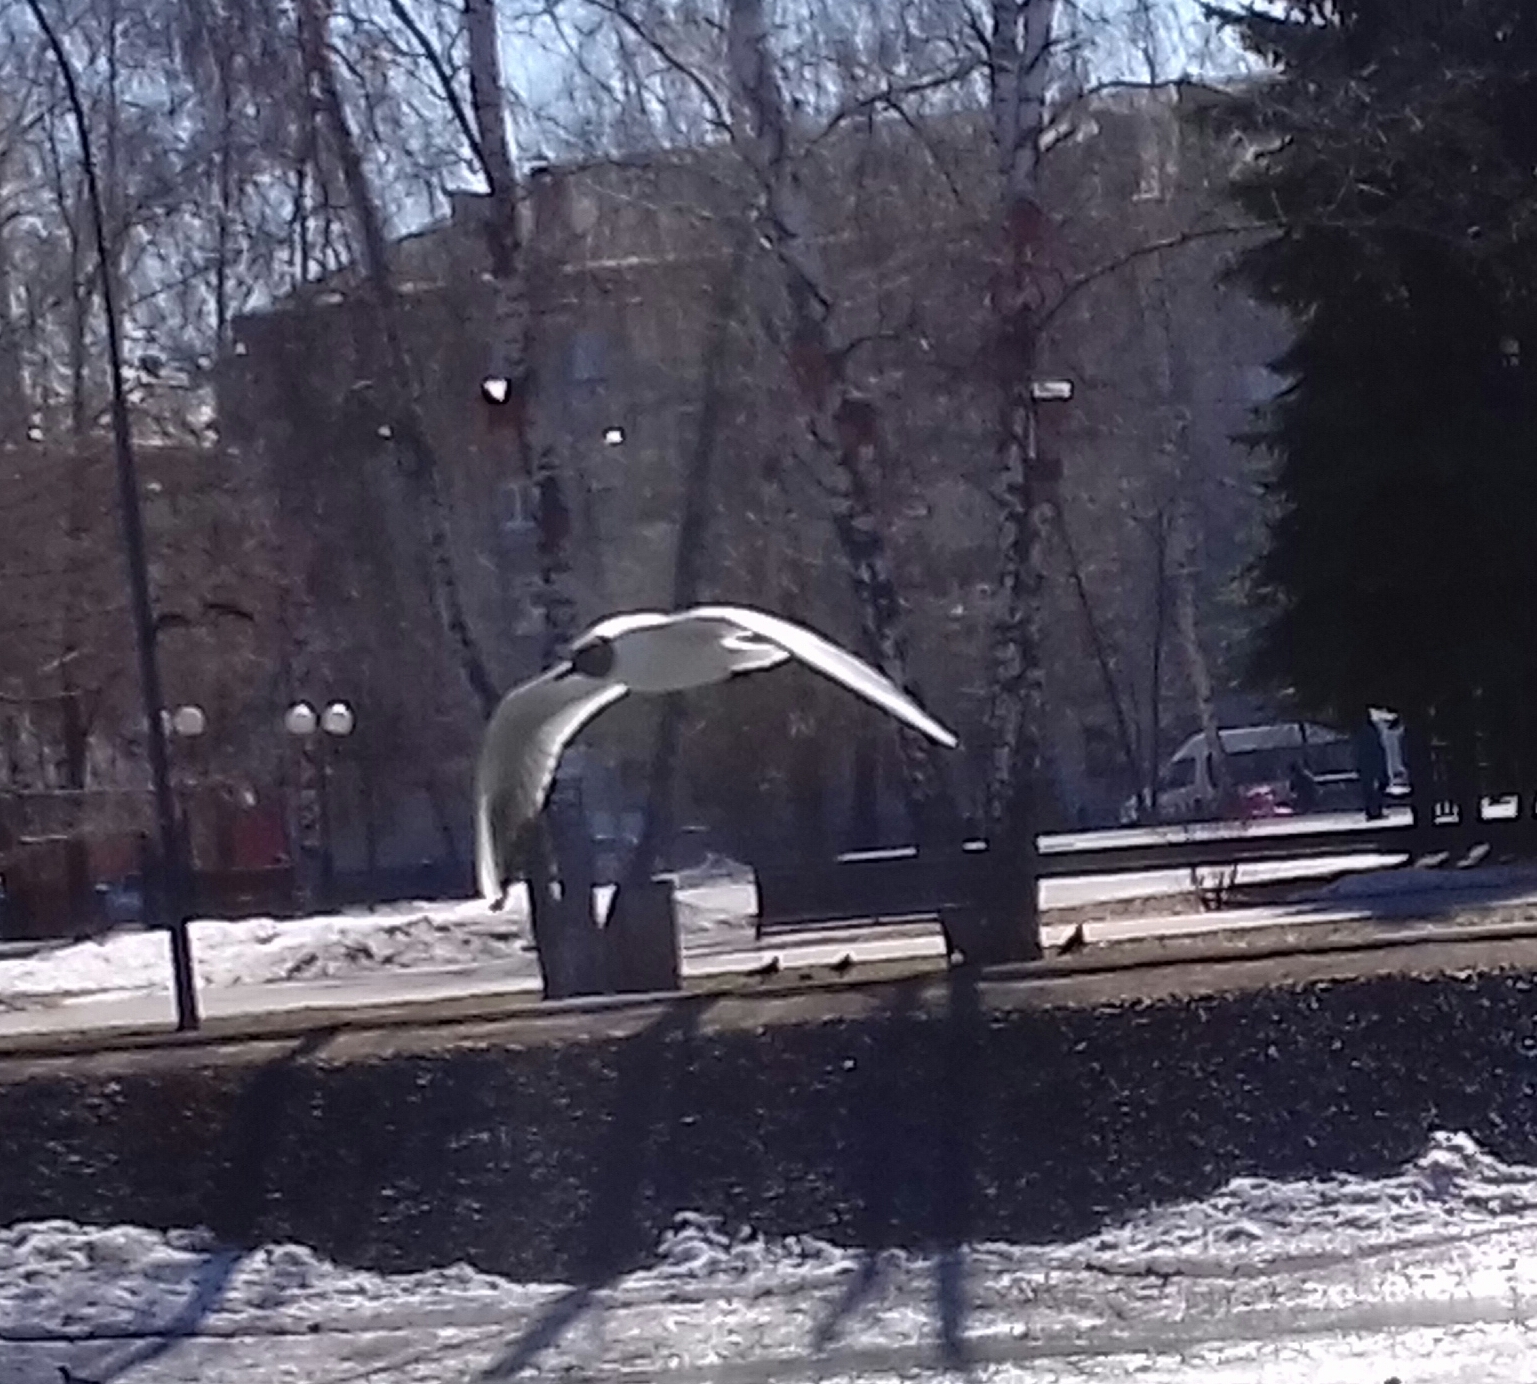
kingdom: Animalia
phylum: Chordata
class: Aves
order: Charadriiformes
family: Laridae
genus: Chroicocephalus
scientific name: Chroicocephalus ridibundus
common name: Black-headed gull
